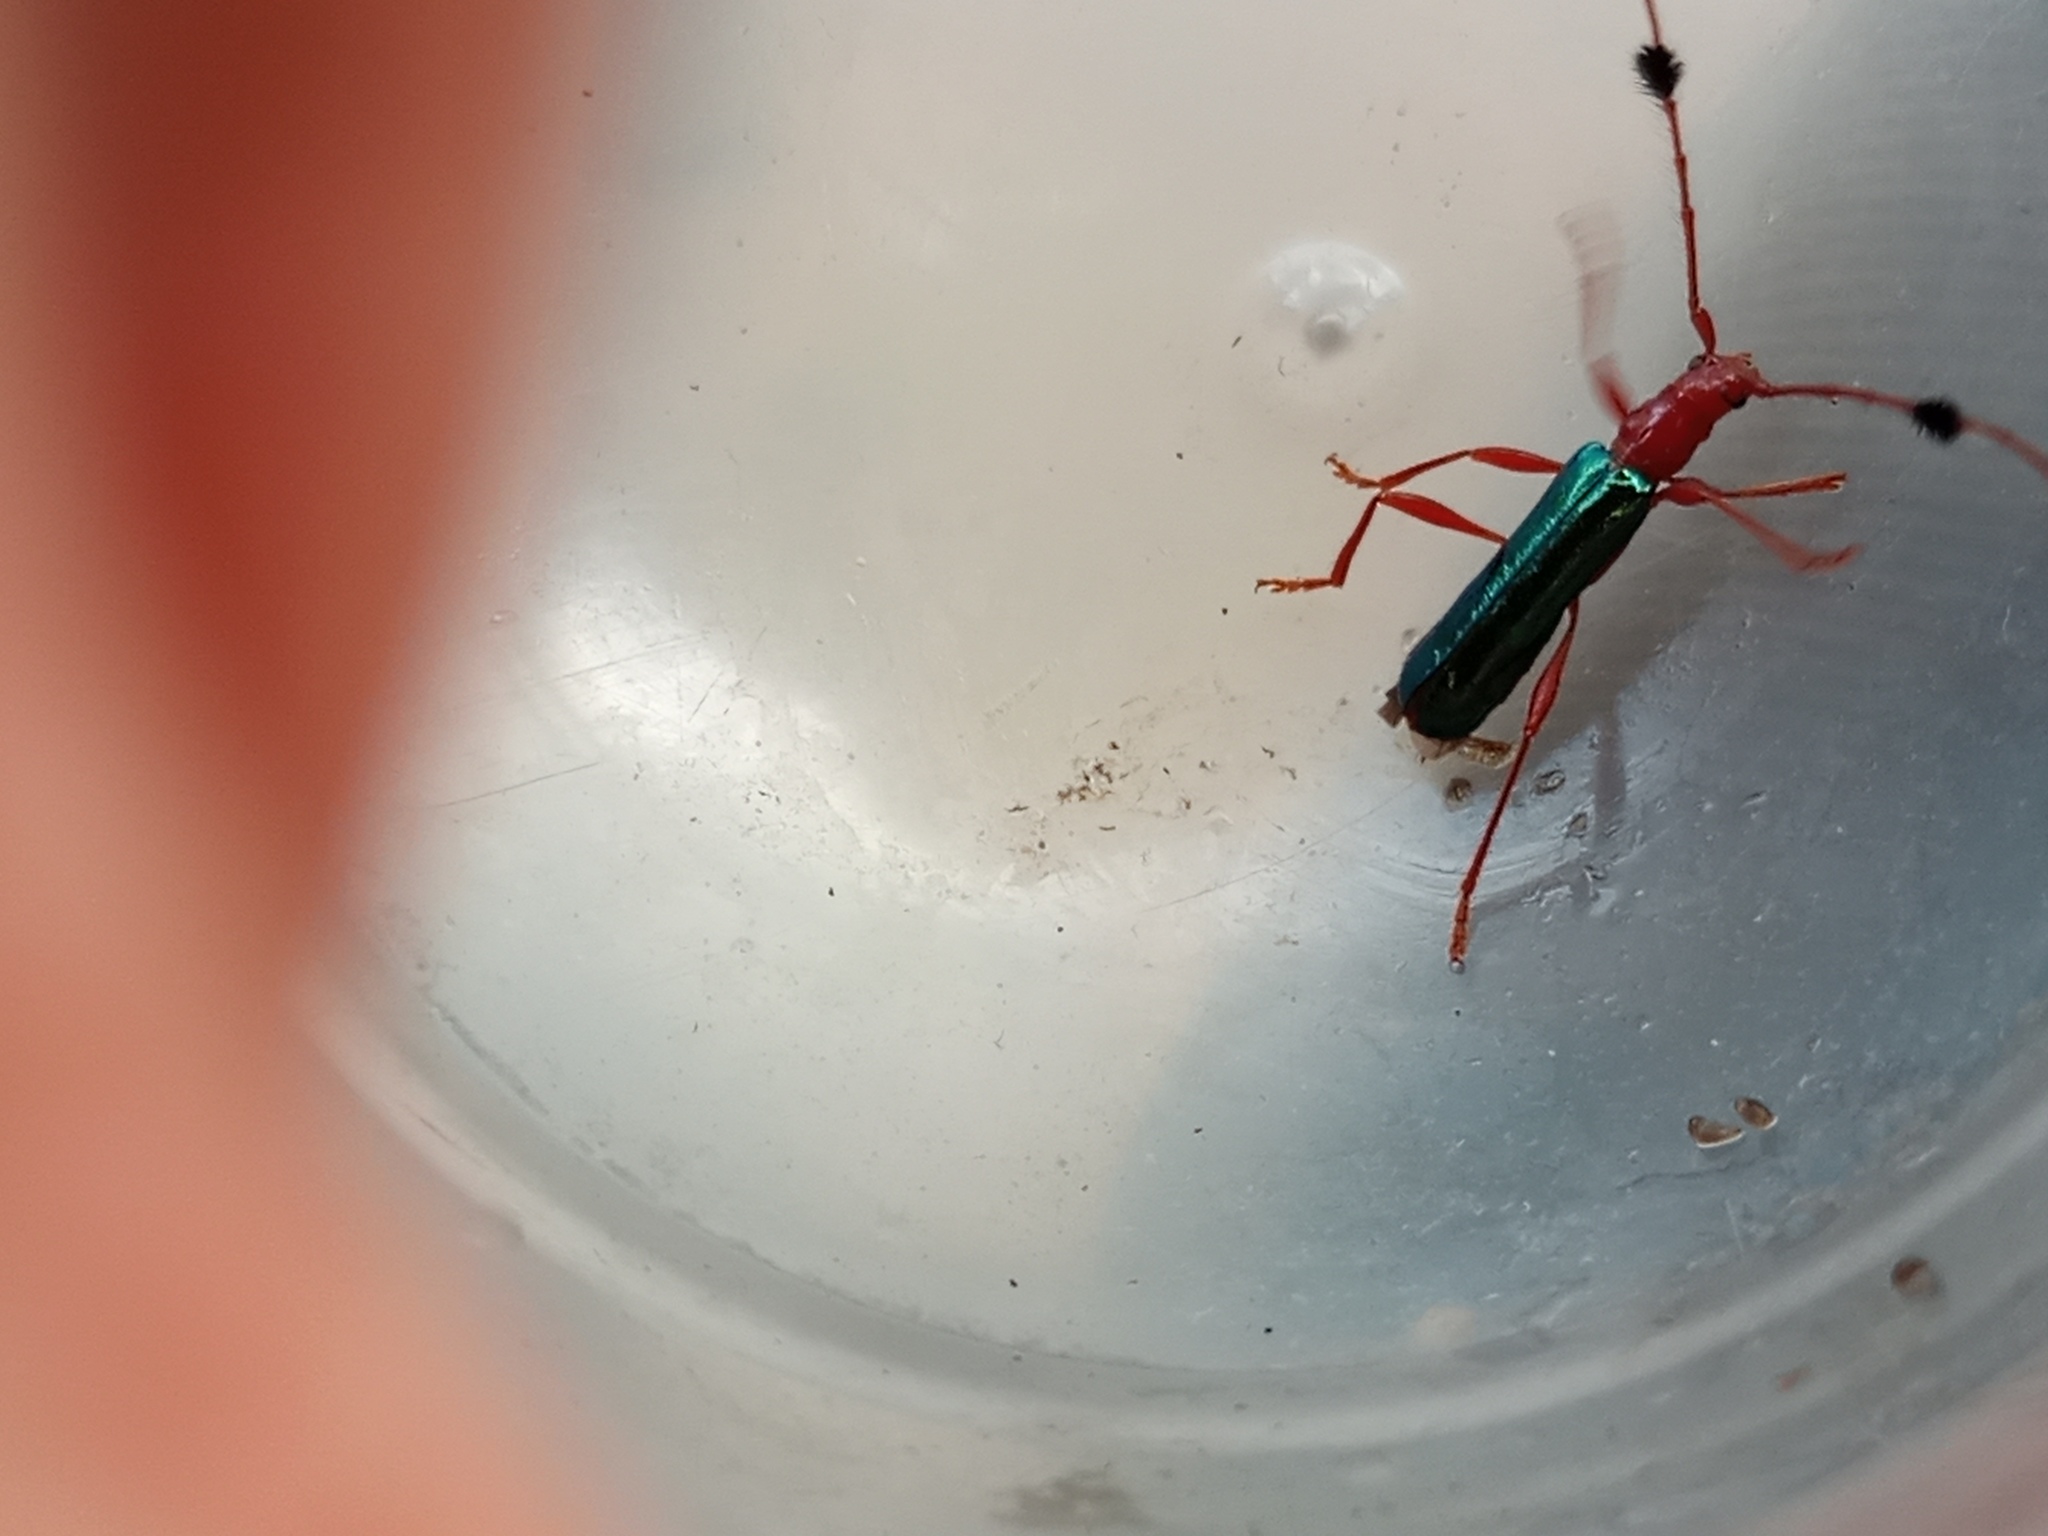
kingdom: Animalia
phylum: Arthropoda
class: Insecta
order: Coleoptera
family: Cerambycidae
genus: Paromoeocerus
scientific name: Paromoeocerus barbicornis
